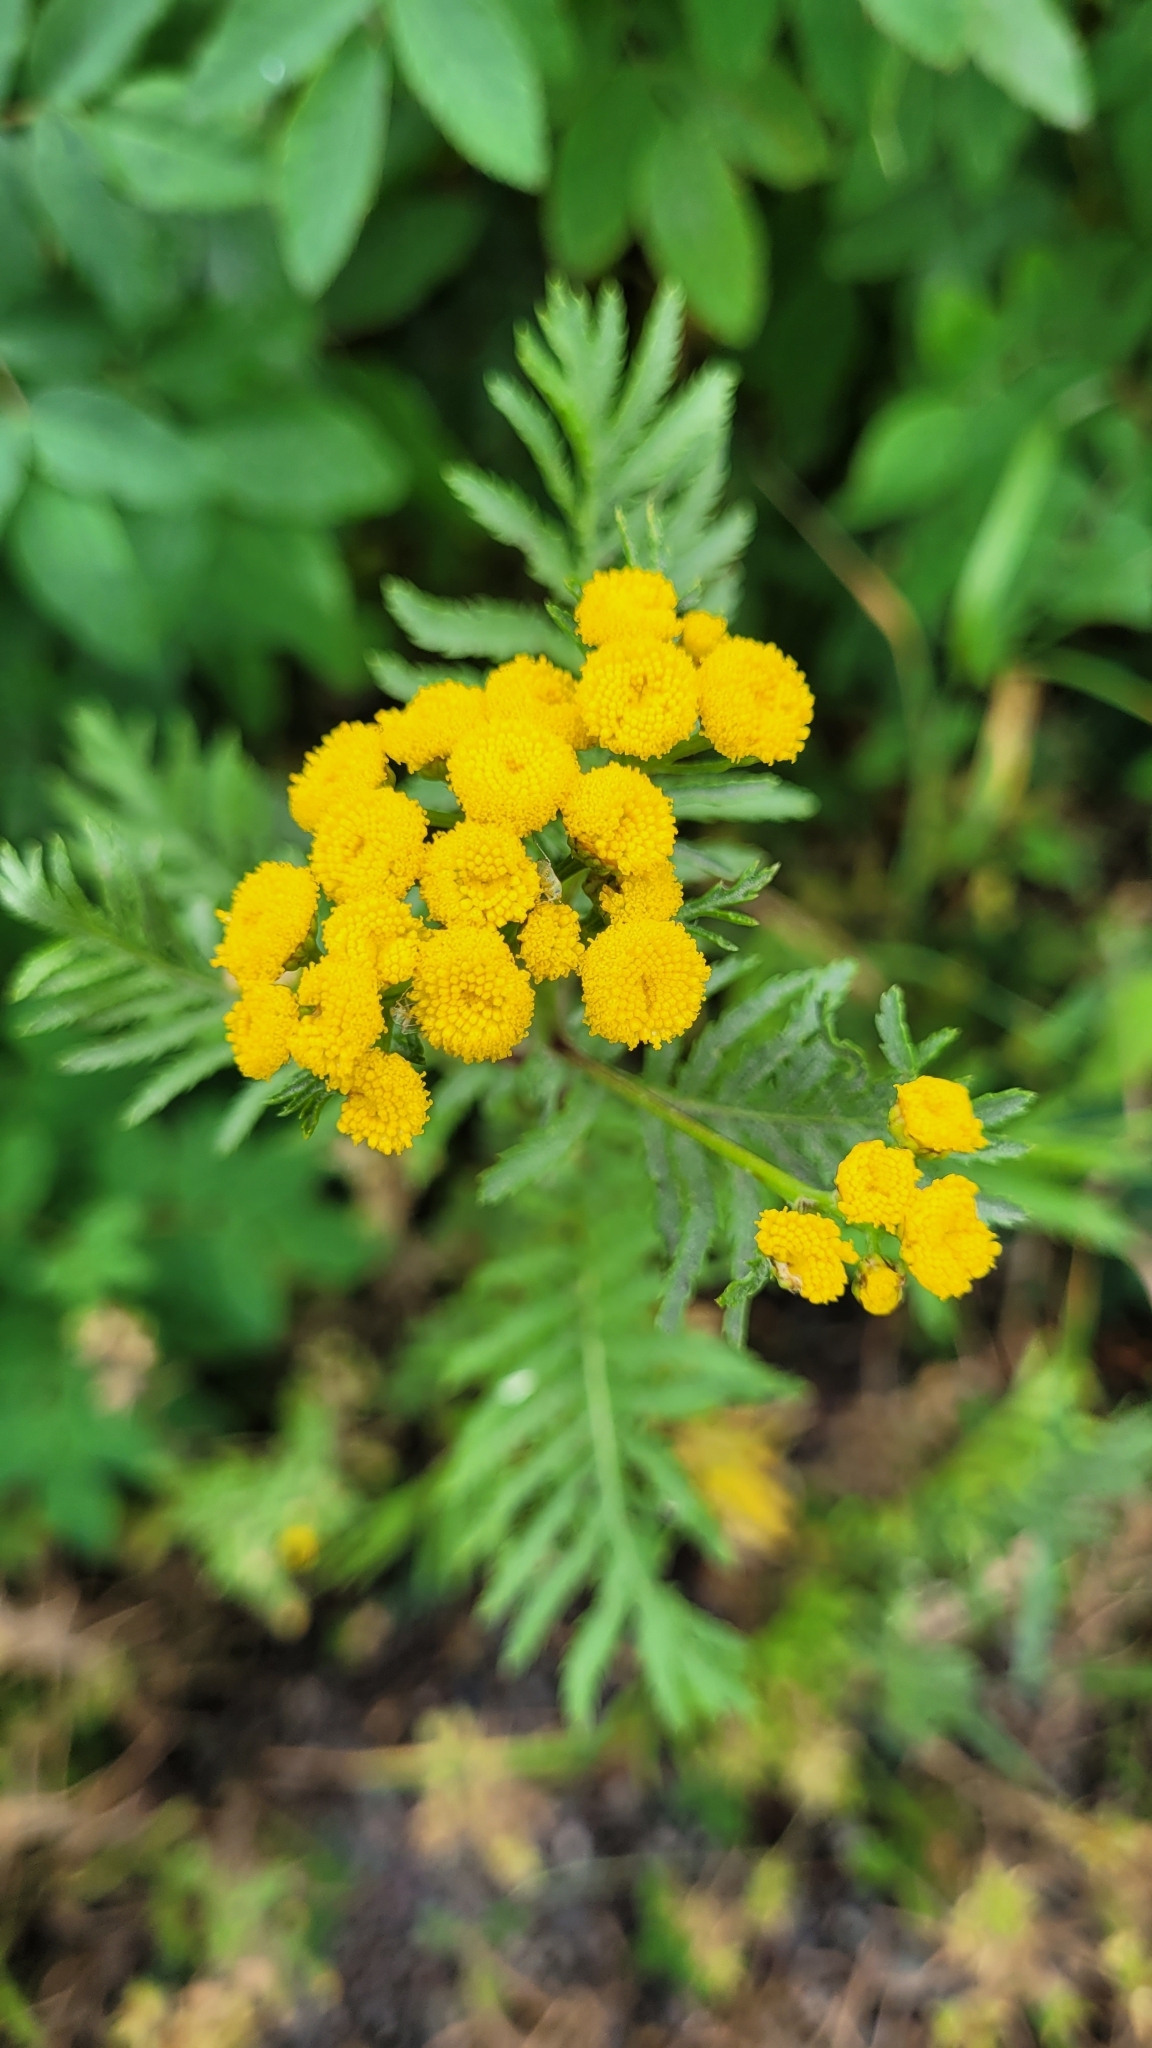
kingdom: Plantae
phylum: Tracheophyta
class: Magnoliopsida
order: Asterales
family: Asteraceae
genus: Tanacetum
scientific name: Tanacetum vulgare
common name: Common tansy
